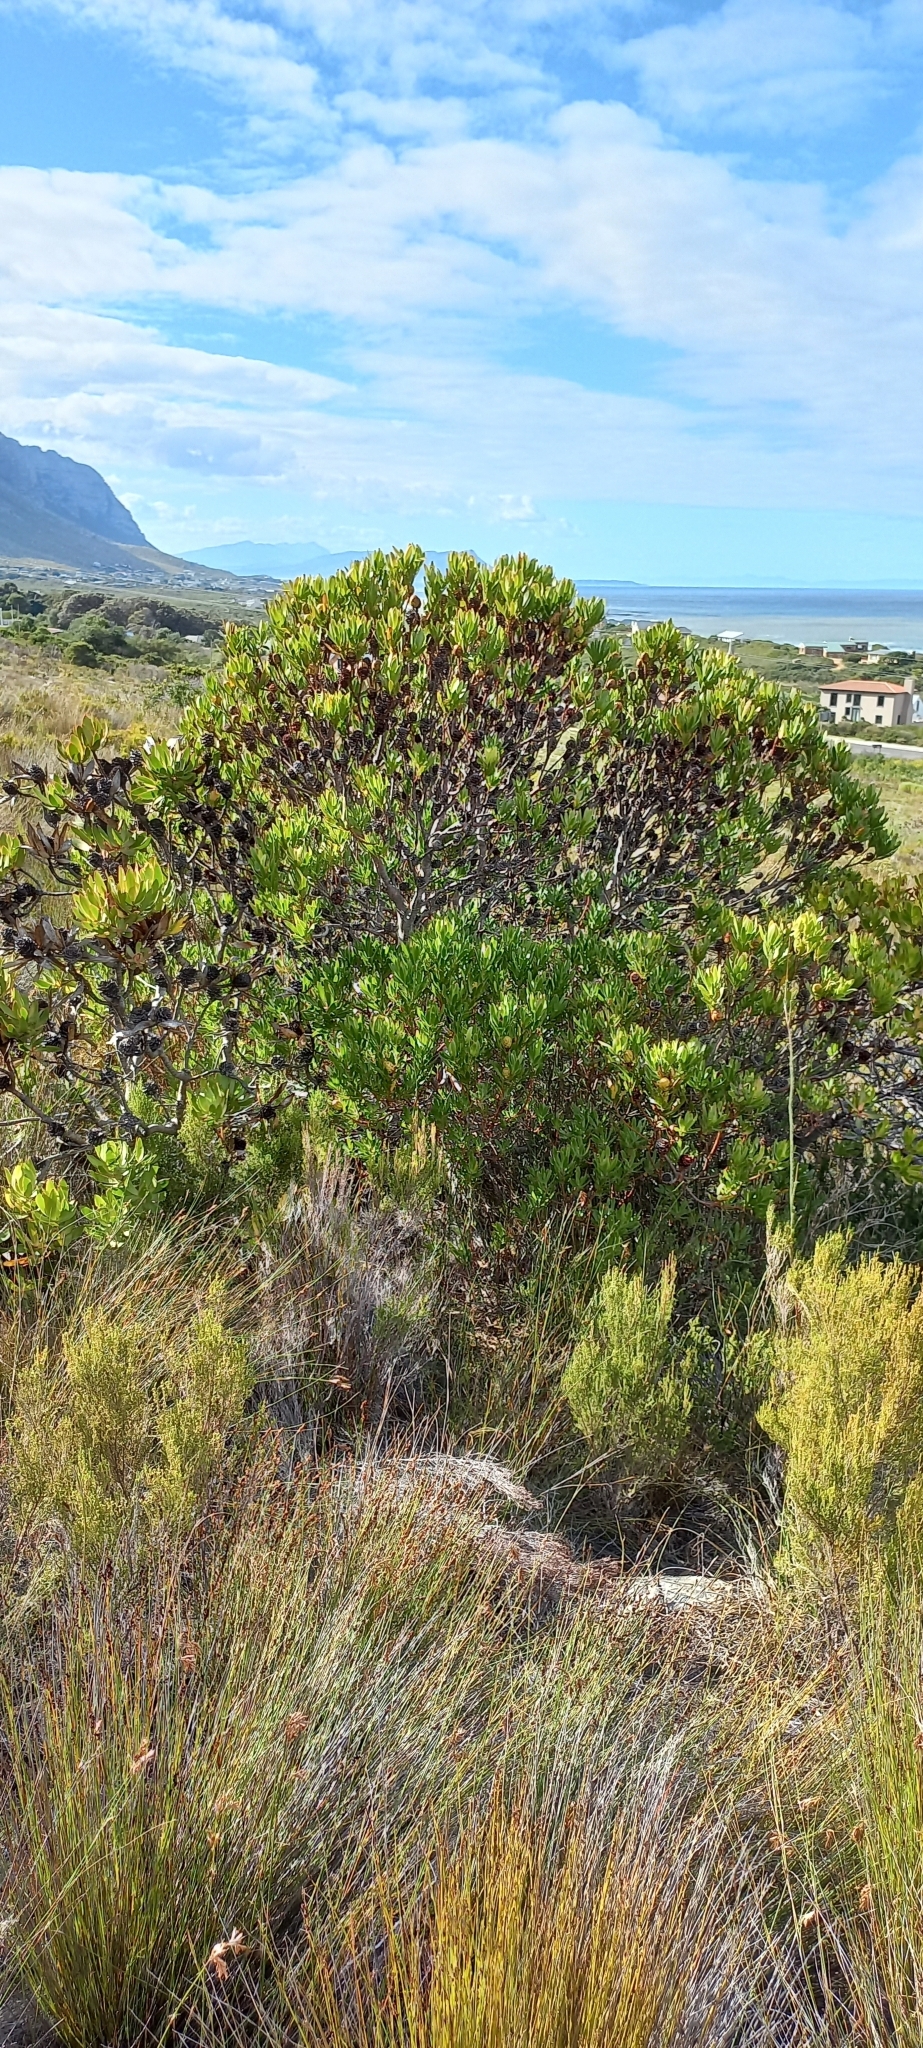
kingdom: Plantae
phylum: Tracheophyta
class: Magnoliopsida
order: Proteales
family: Proteaceae
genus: Leucadendron
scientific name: Leucadendron gandogeri
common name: Broad-leaf conebush
